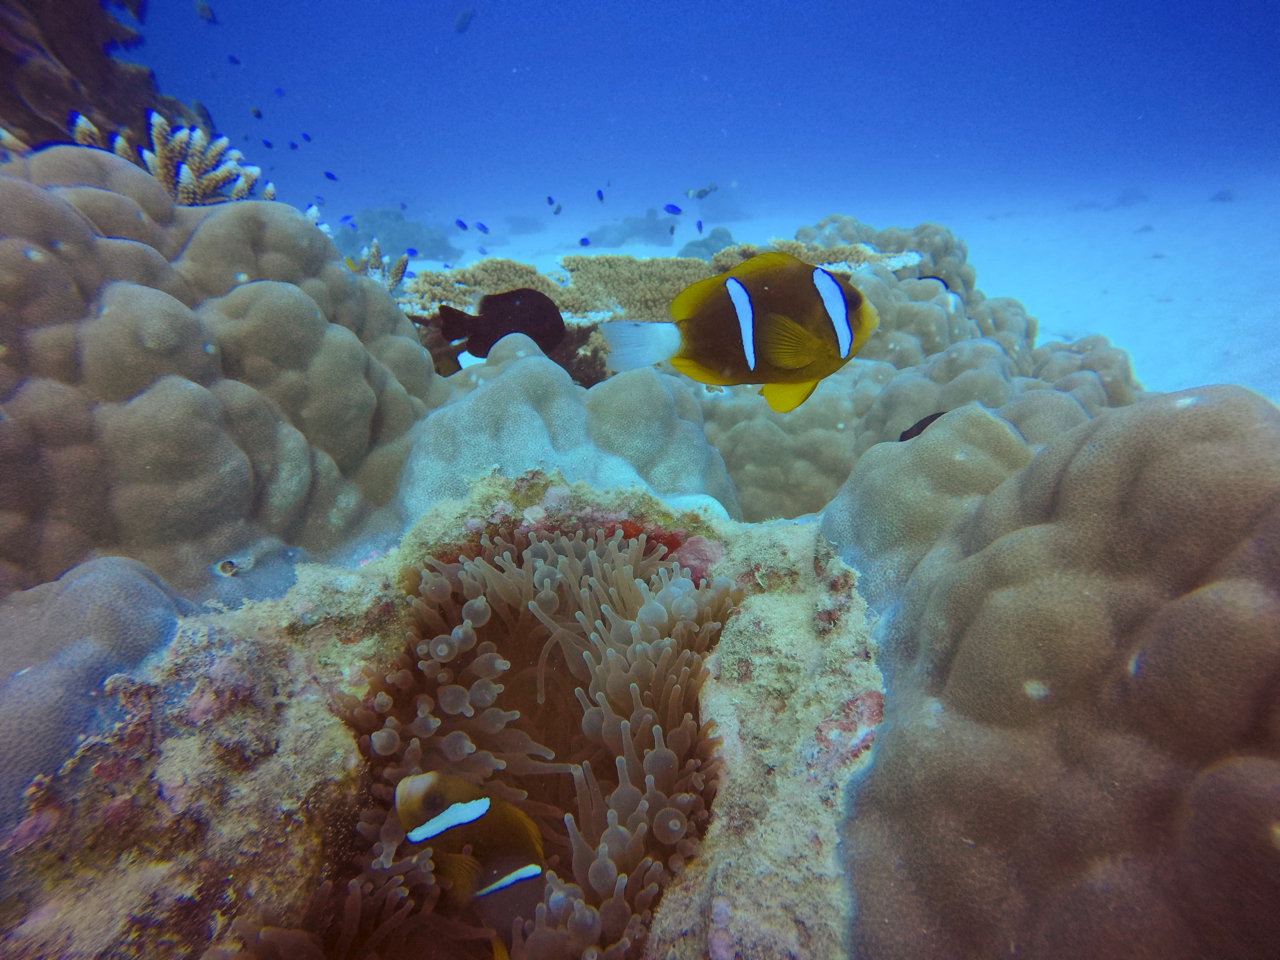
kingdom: Animalia
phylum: Chordata
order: Perciformes
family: Pomacentridae
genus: Amphiprion
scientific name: Amphiprion akindynos
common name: Barrier reef anemonefish
